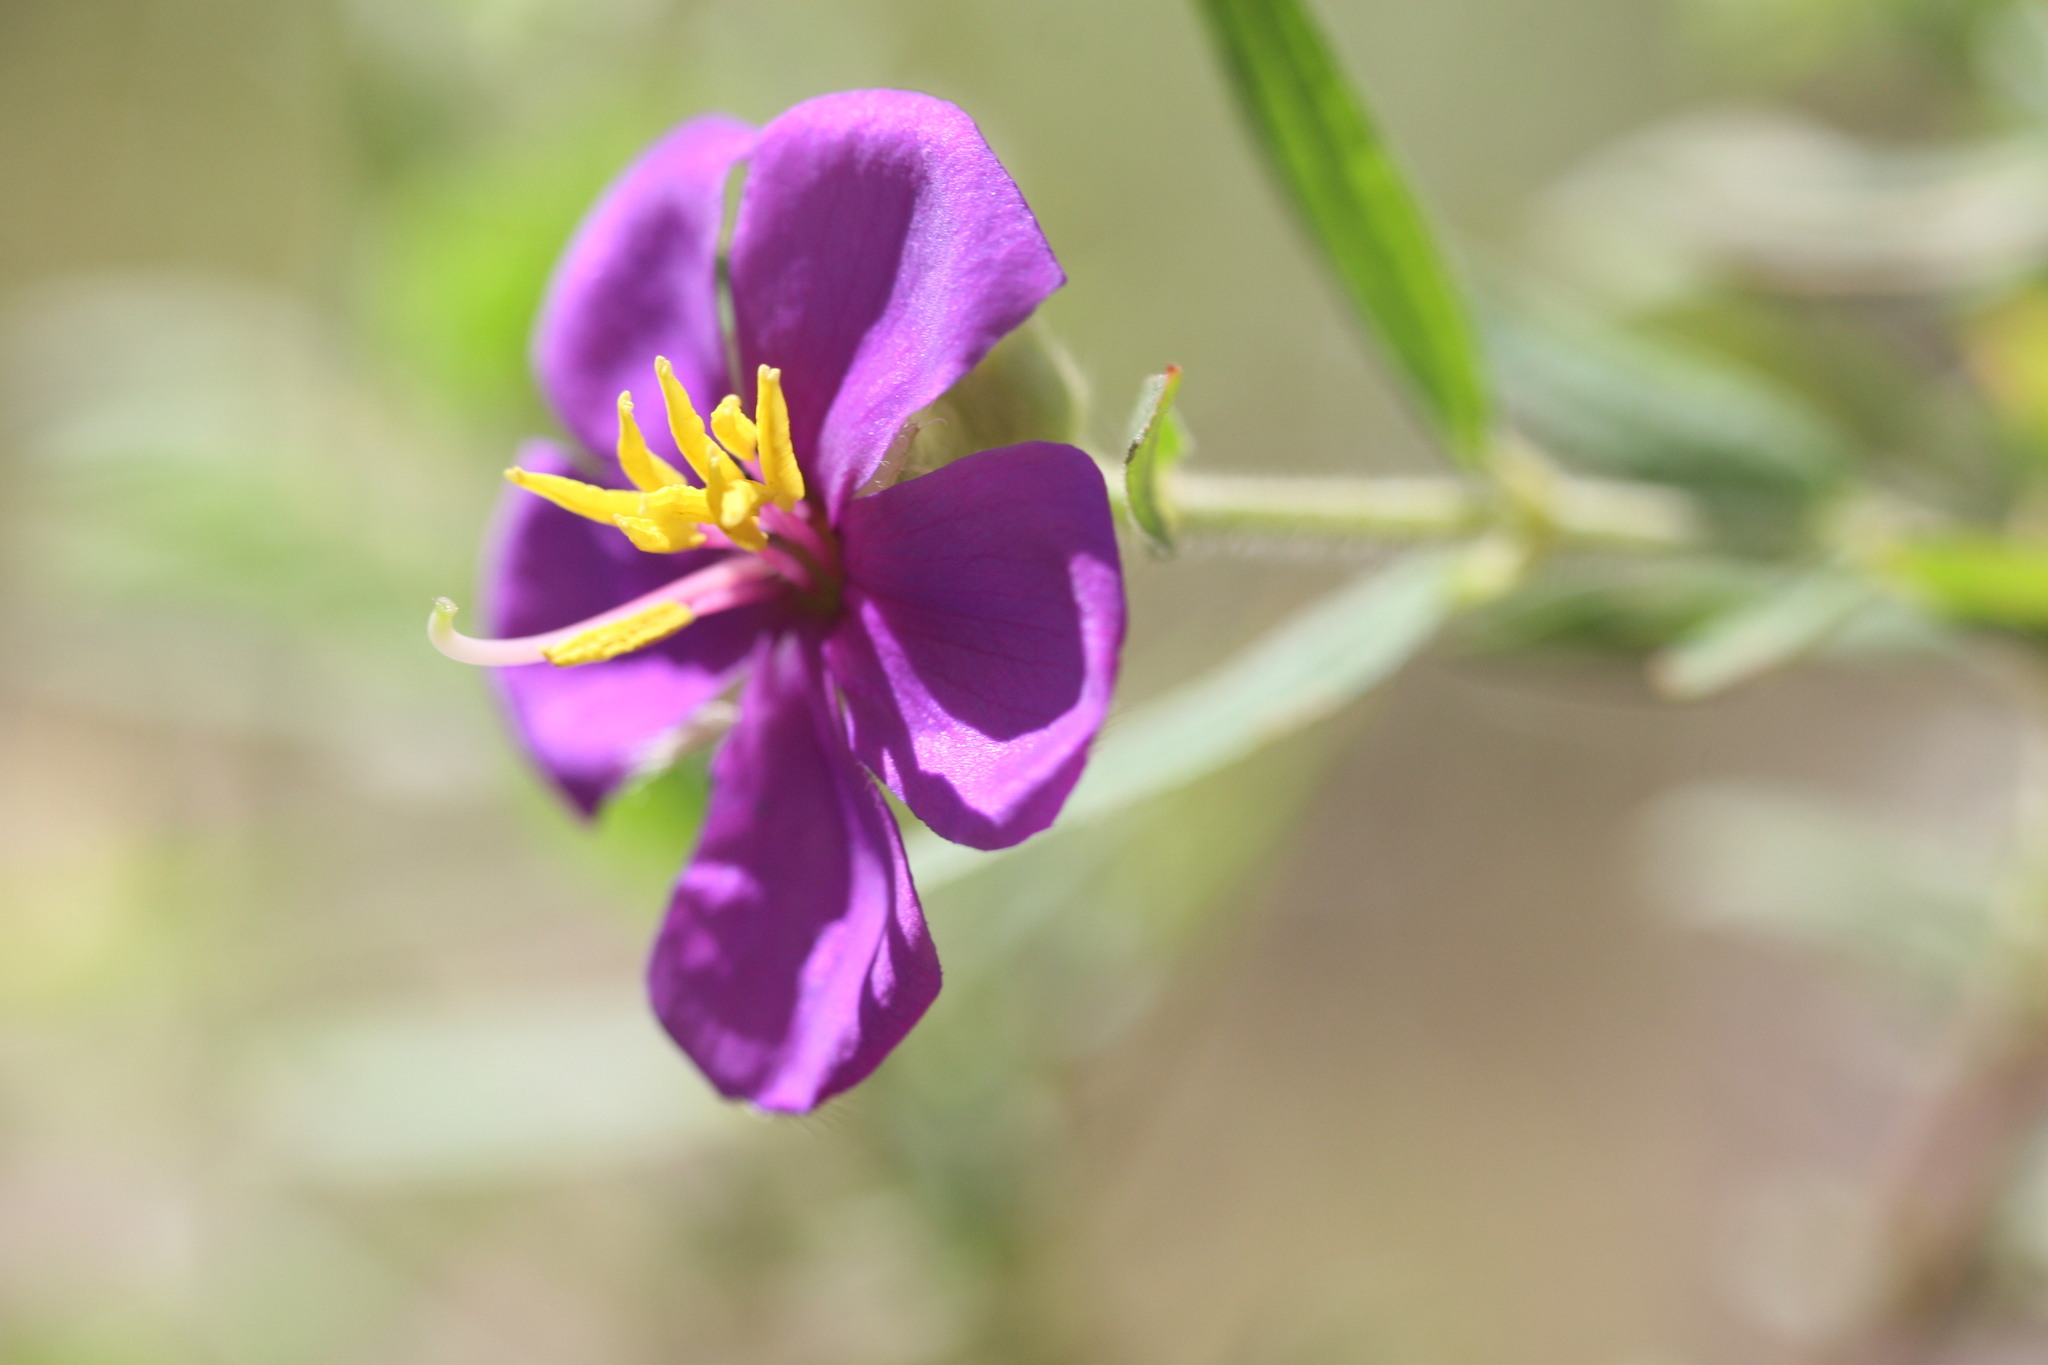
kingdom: Plantae
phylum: Tracheophyta
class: Magnoliopsida
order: Myrtales
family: Melastomataceae
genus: Osbeckia
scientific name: Osbeckia australiana
